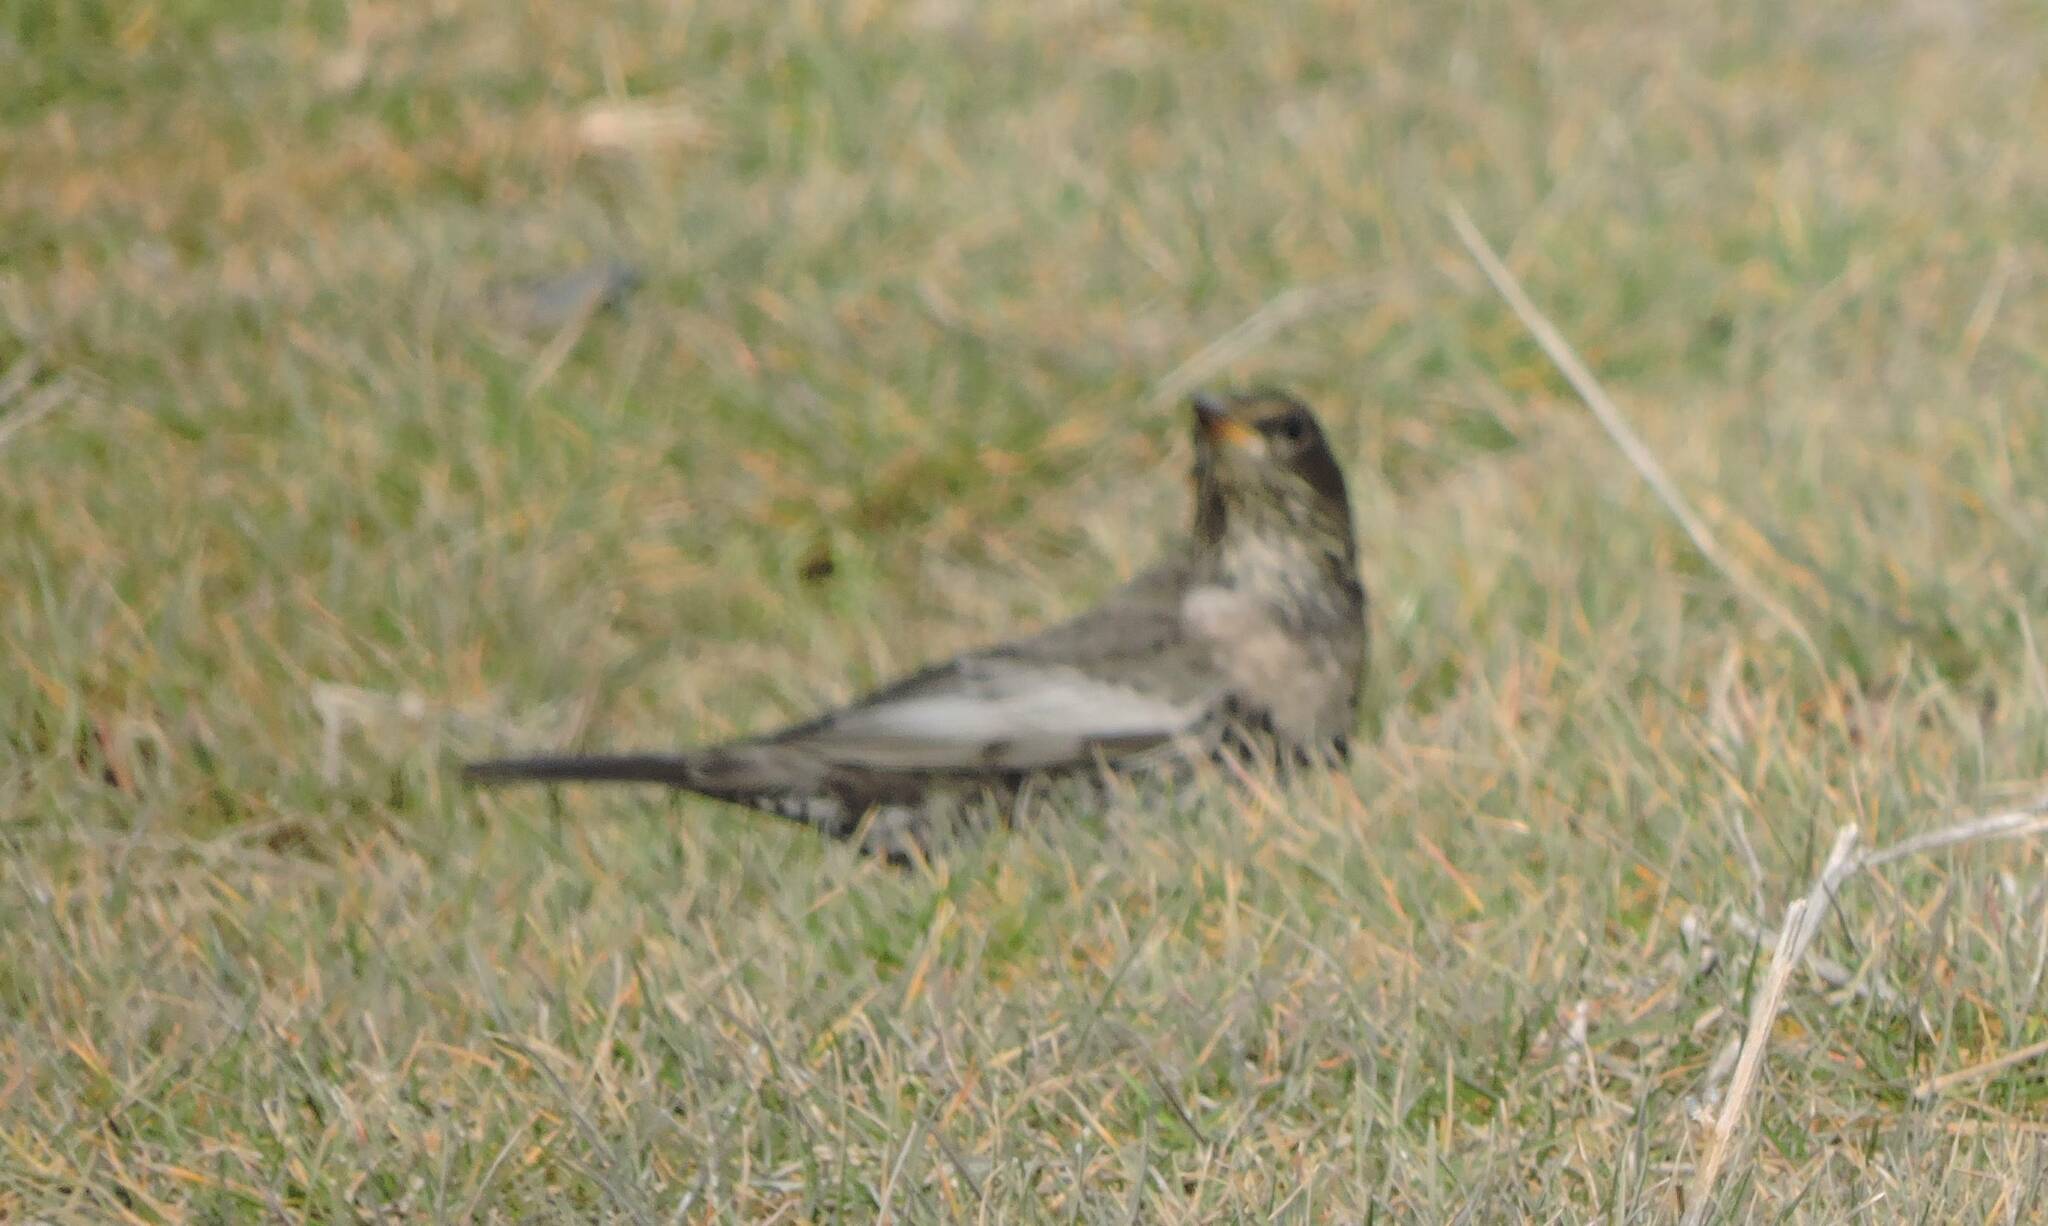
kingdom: Animalia
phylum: Chordata
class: Aves
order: Passeriformes
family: Turdidae
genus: Turdus
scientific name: Turdus torquatus
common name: Ring ouzel
